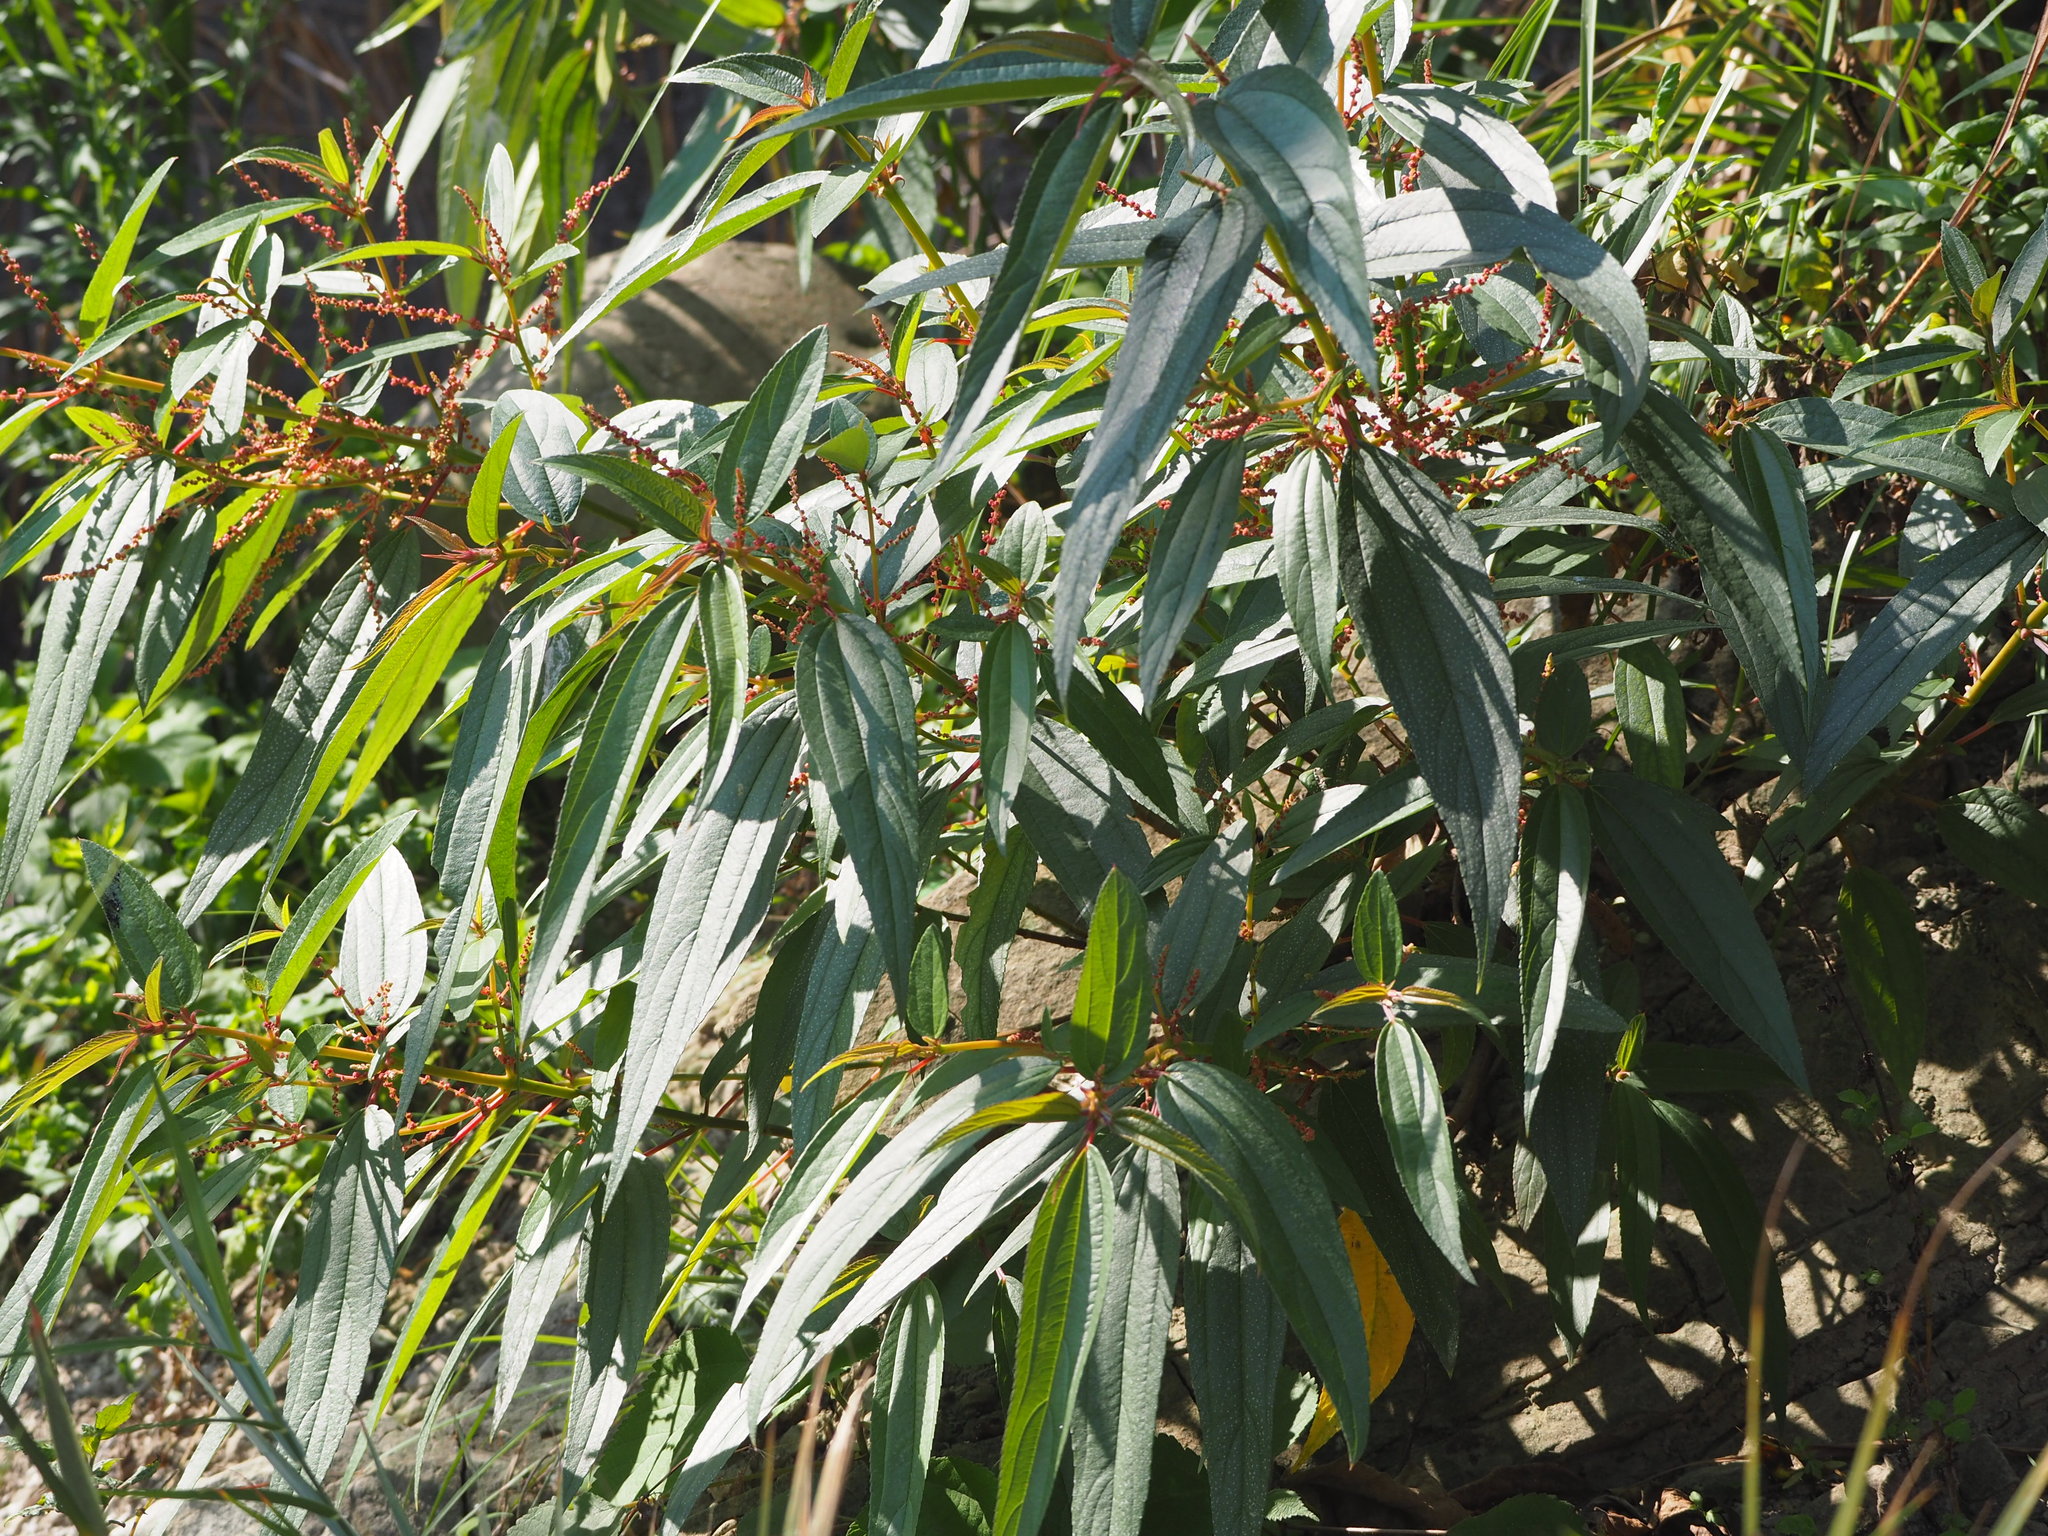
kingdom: Plantae
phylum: Tracheophyta
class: Magnoliopsida
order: Rosales
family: Urticaceae
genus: Boehmeria
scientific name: Boehmeria densiflora
